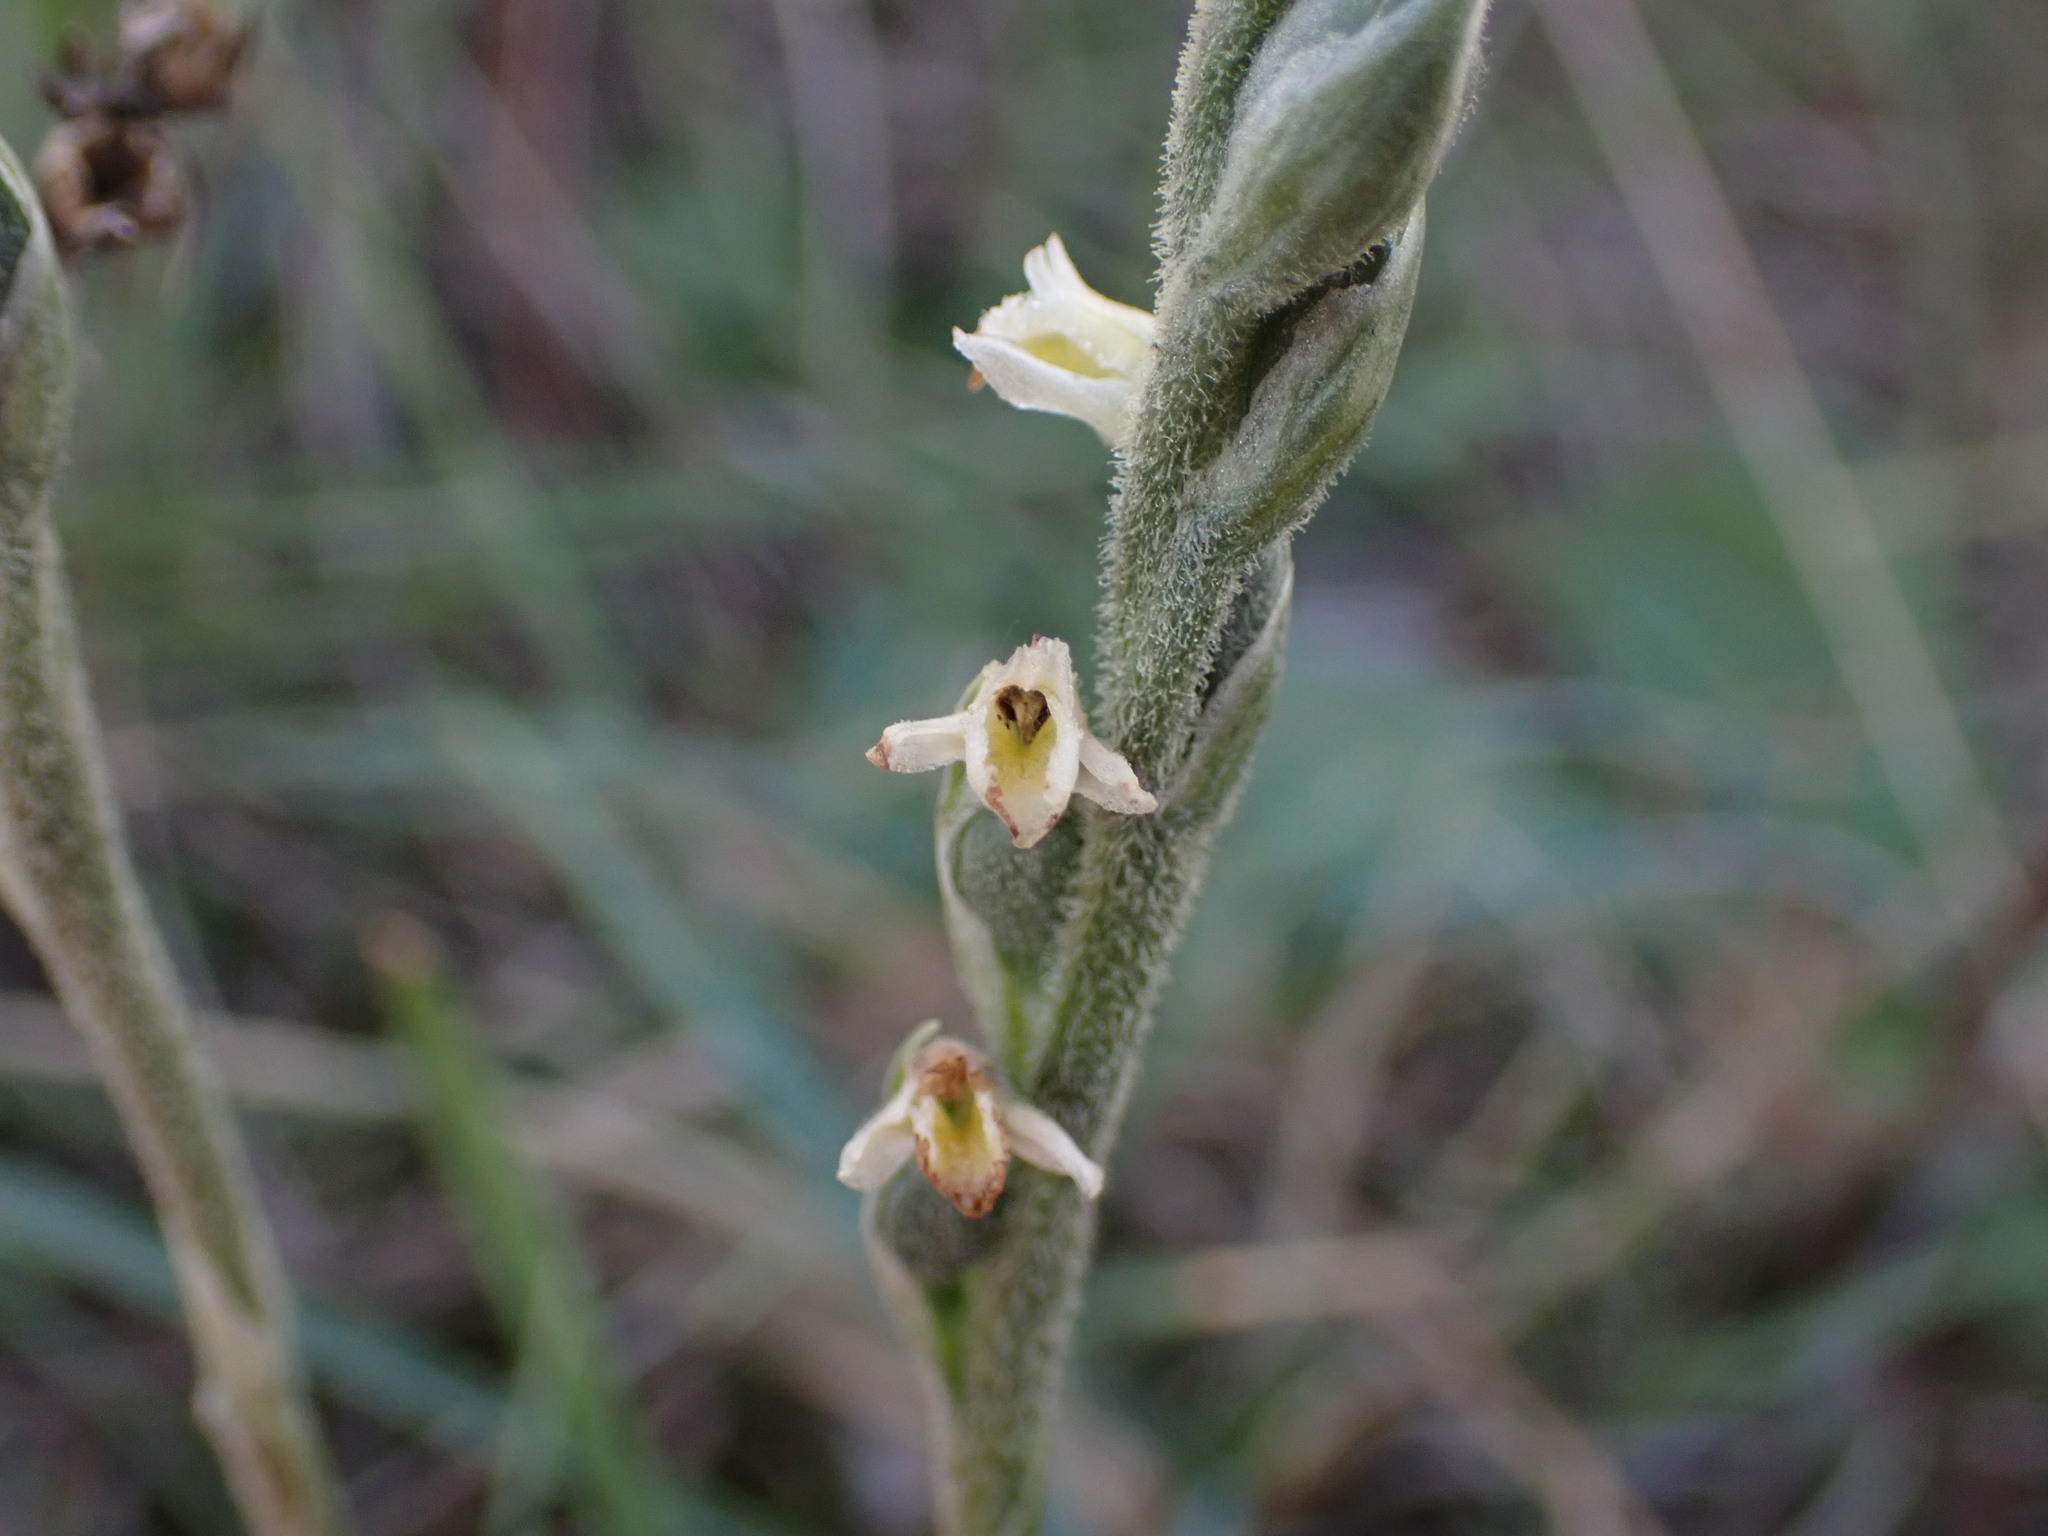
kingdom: Plantae
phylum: Tracheophyta
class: Liliopsida
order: Asparagales
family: Orchidaceae
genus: Spiranthes
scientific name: Spiranthes spiralis
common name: Autumn lady's-tresses
